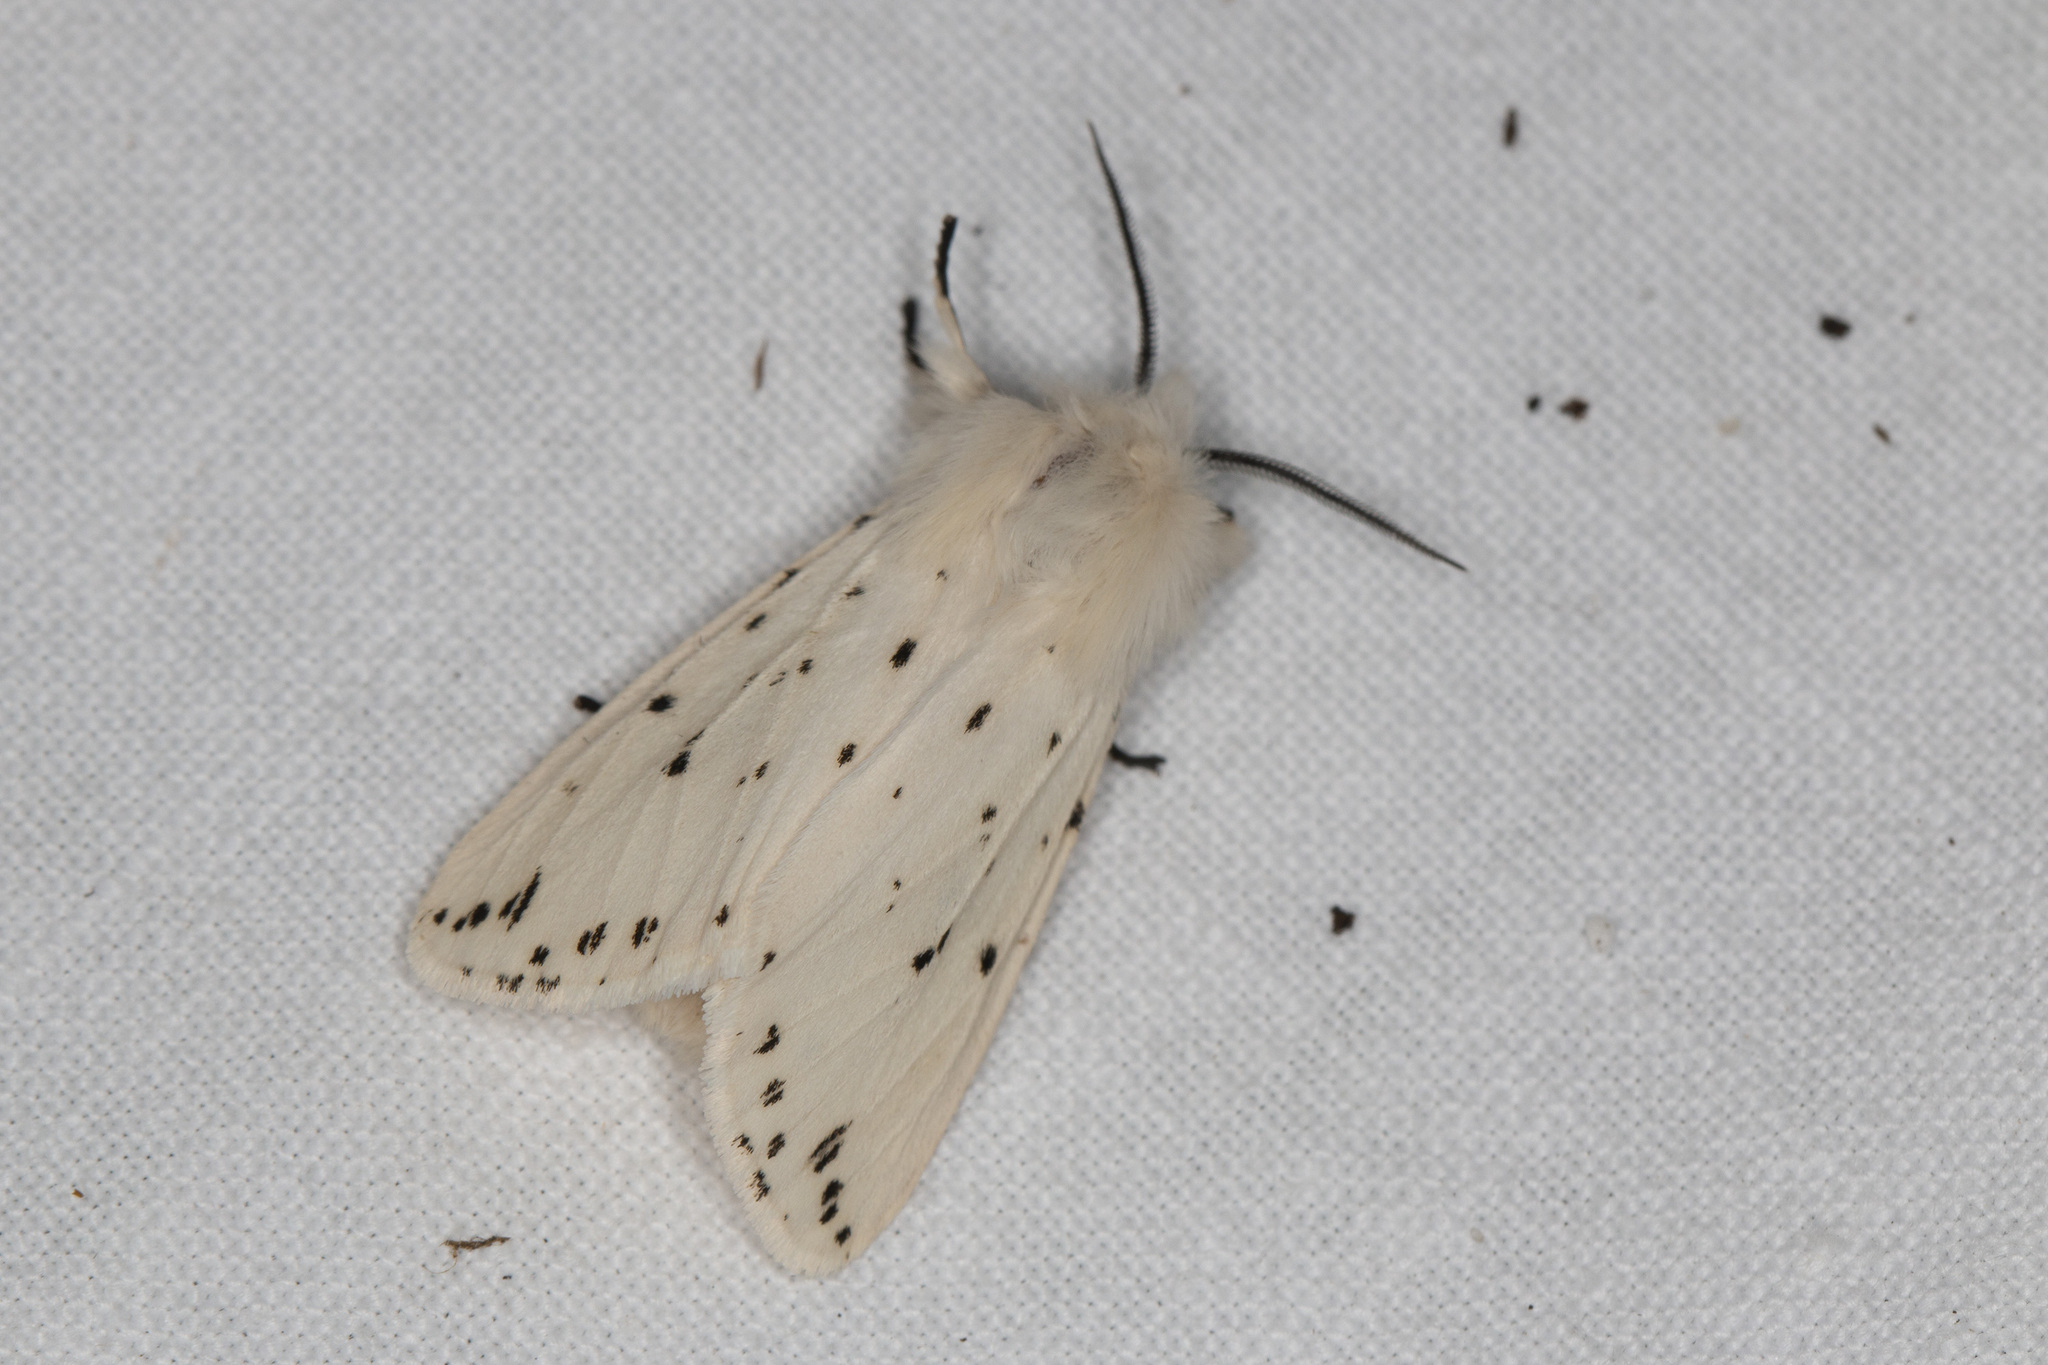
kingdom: Animalia
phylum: Arthropoda
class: Insecta
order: Lepidoptera
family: Erebidae
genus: Spilosoma
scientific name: Spilosoma lubricipeda
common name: White ermine
